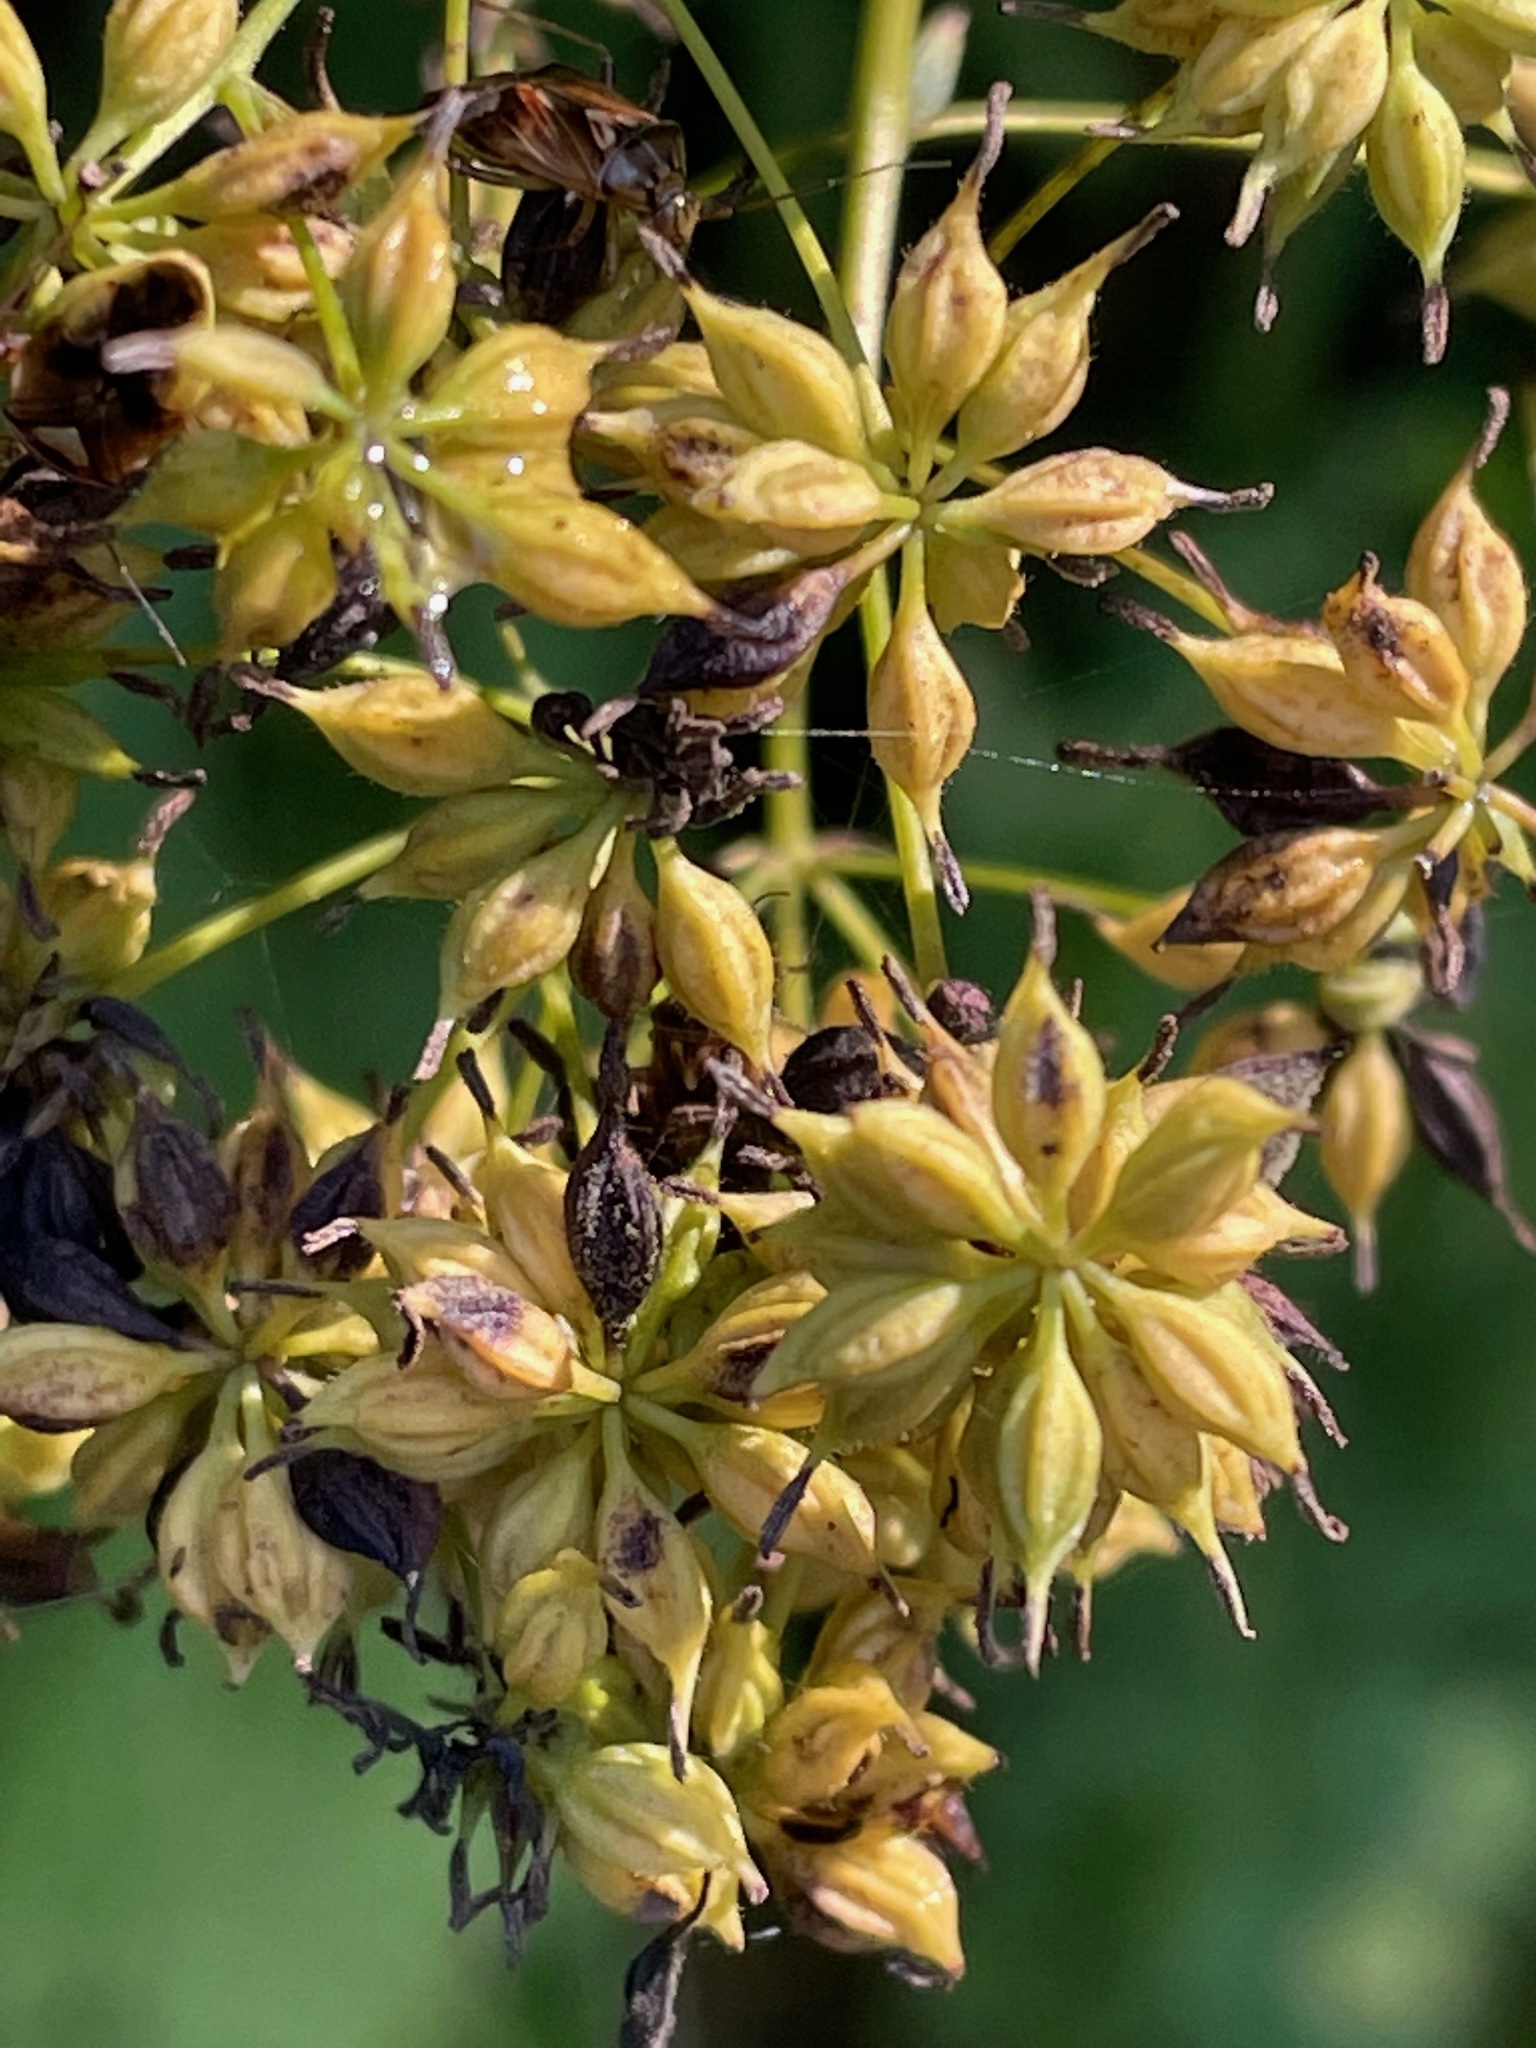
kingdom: Plantae
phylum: Tracheophyta
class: Magnoliopsida
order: Ranunculales
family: Ranunculaceae
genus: Thalictrum
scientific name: Thalictrum pubescens
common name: King-of-the-meadow
